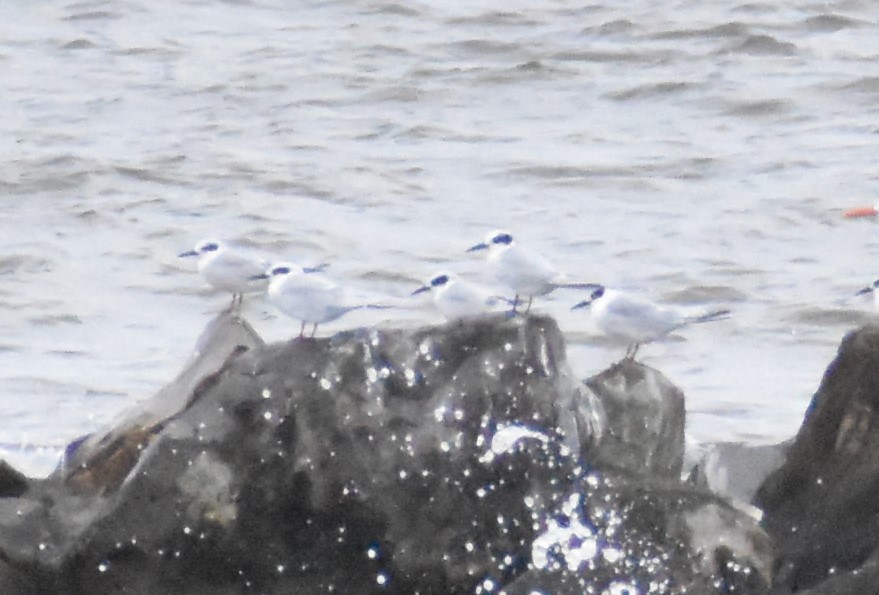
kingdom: Animalia
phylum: Chordata
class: Aves
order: Charadriiformes
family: Laridae
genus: Sterna
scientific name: Sterna forsteri
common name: Forster's tern
